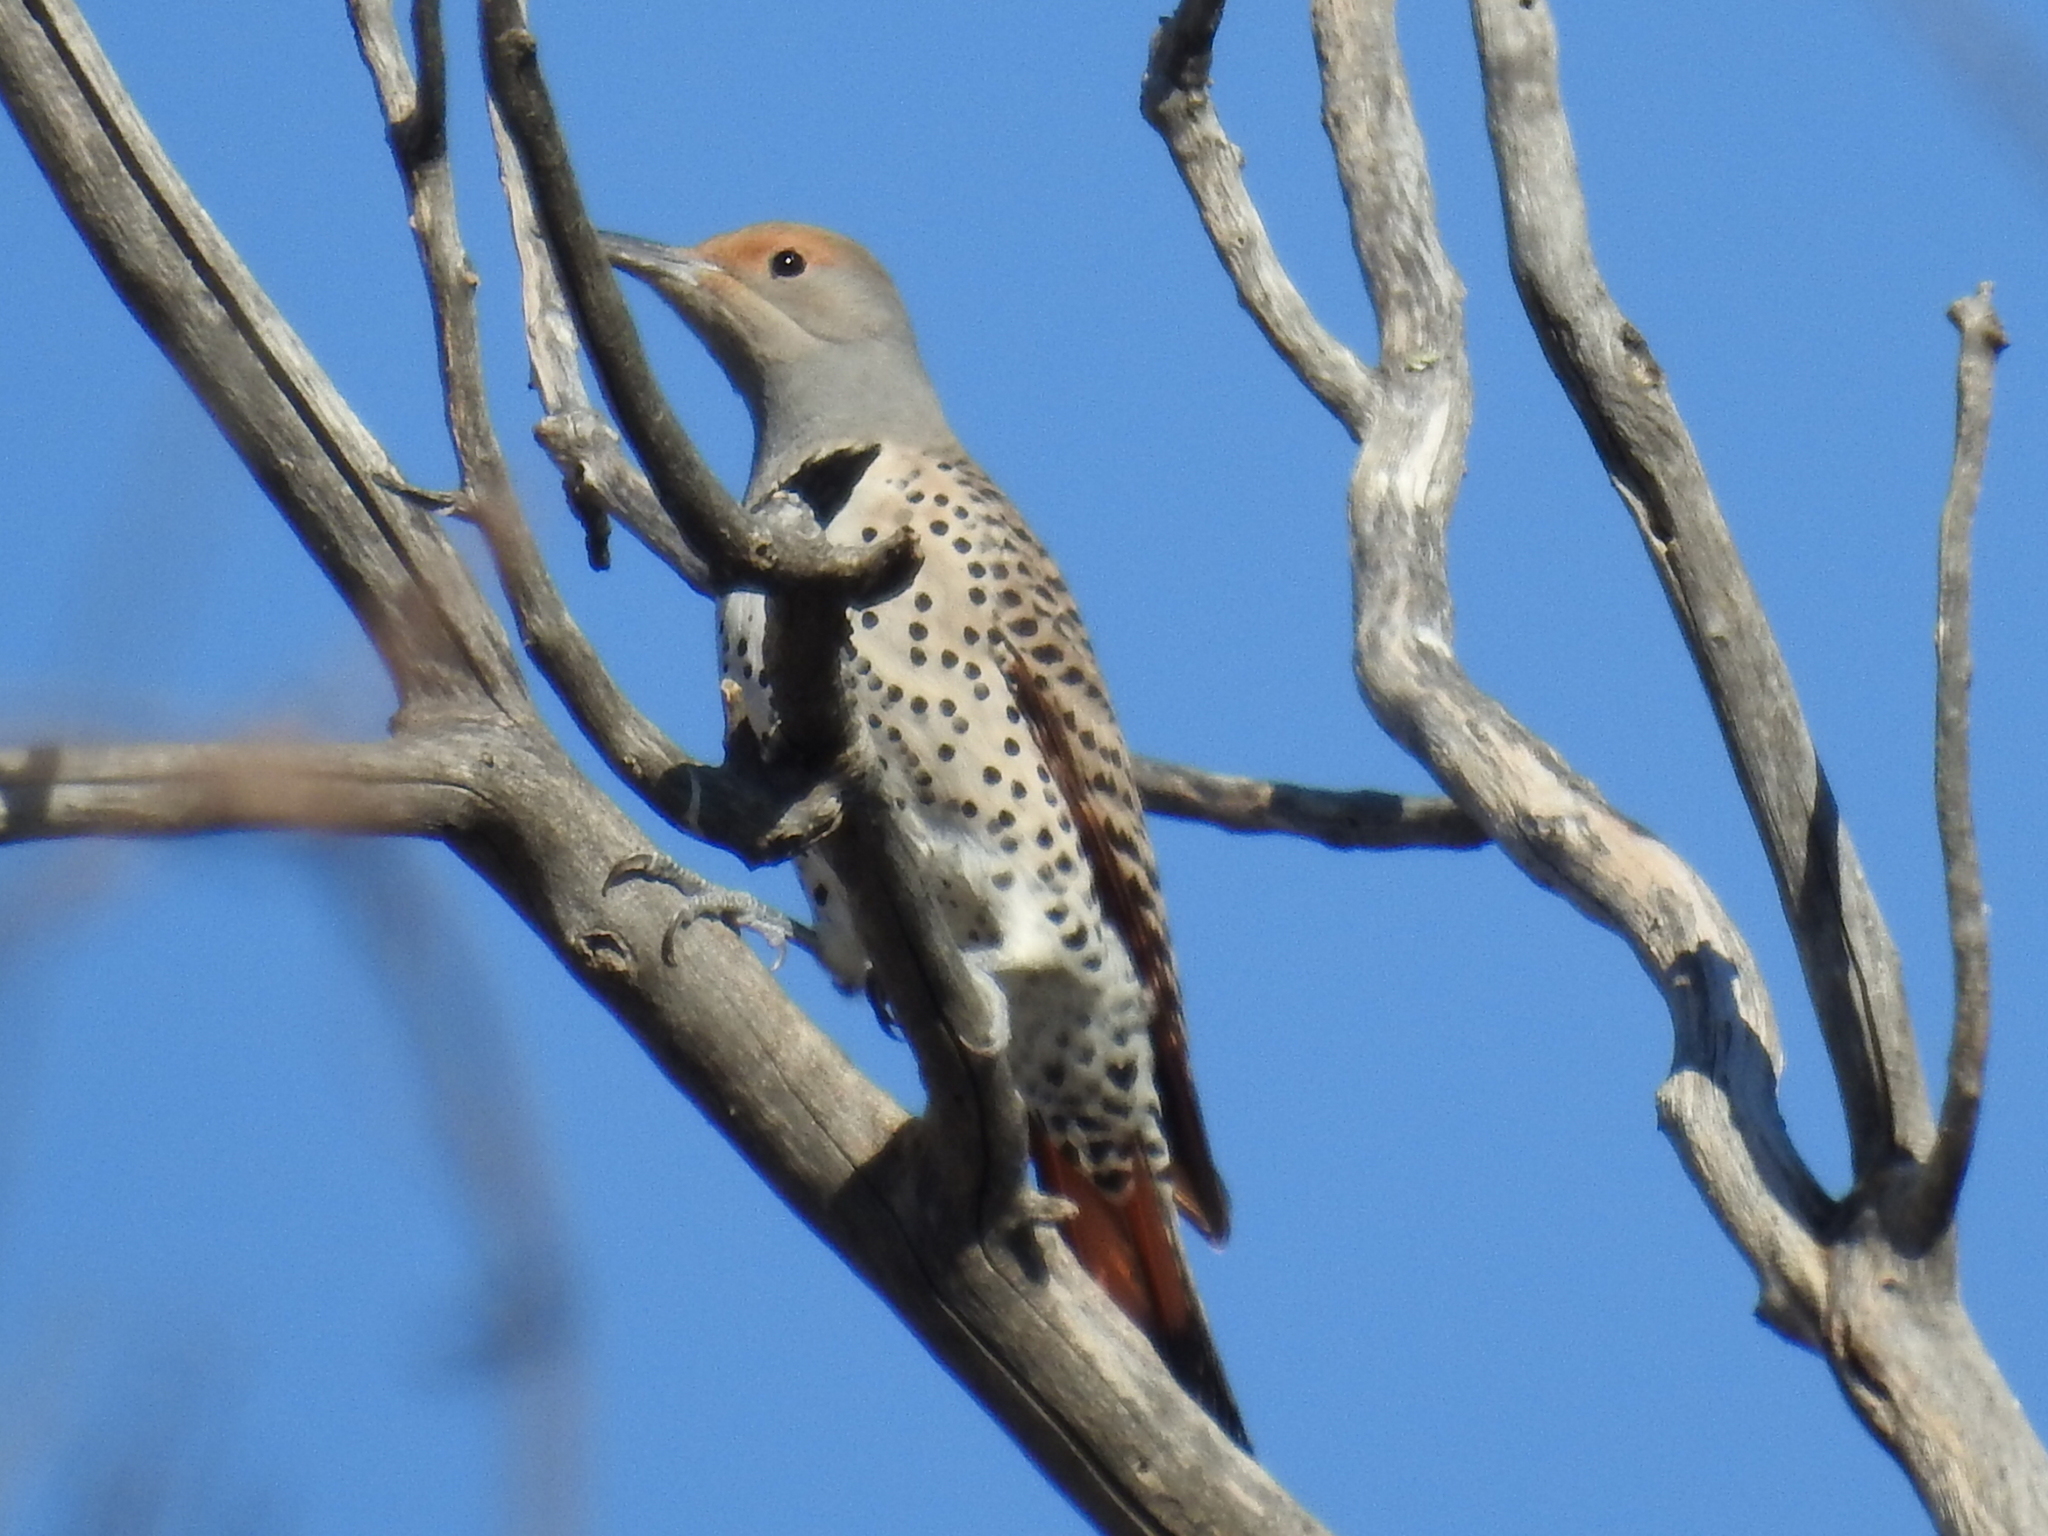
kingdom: Animalia
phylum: Chordata
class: Aves
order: Piciformes
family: Picidae
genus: Colaptes
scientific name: Colaptes auratus
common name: Northern flicker
